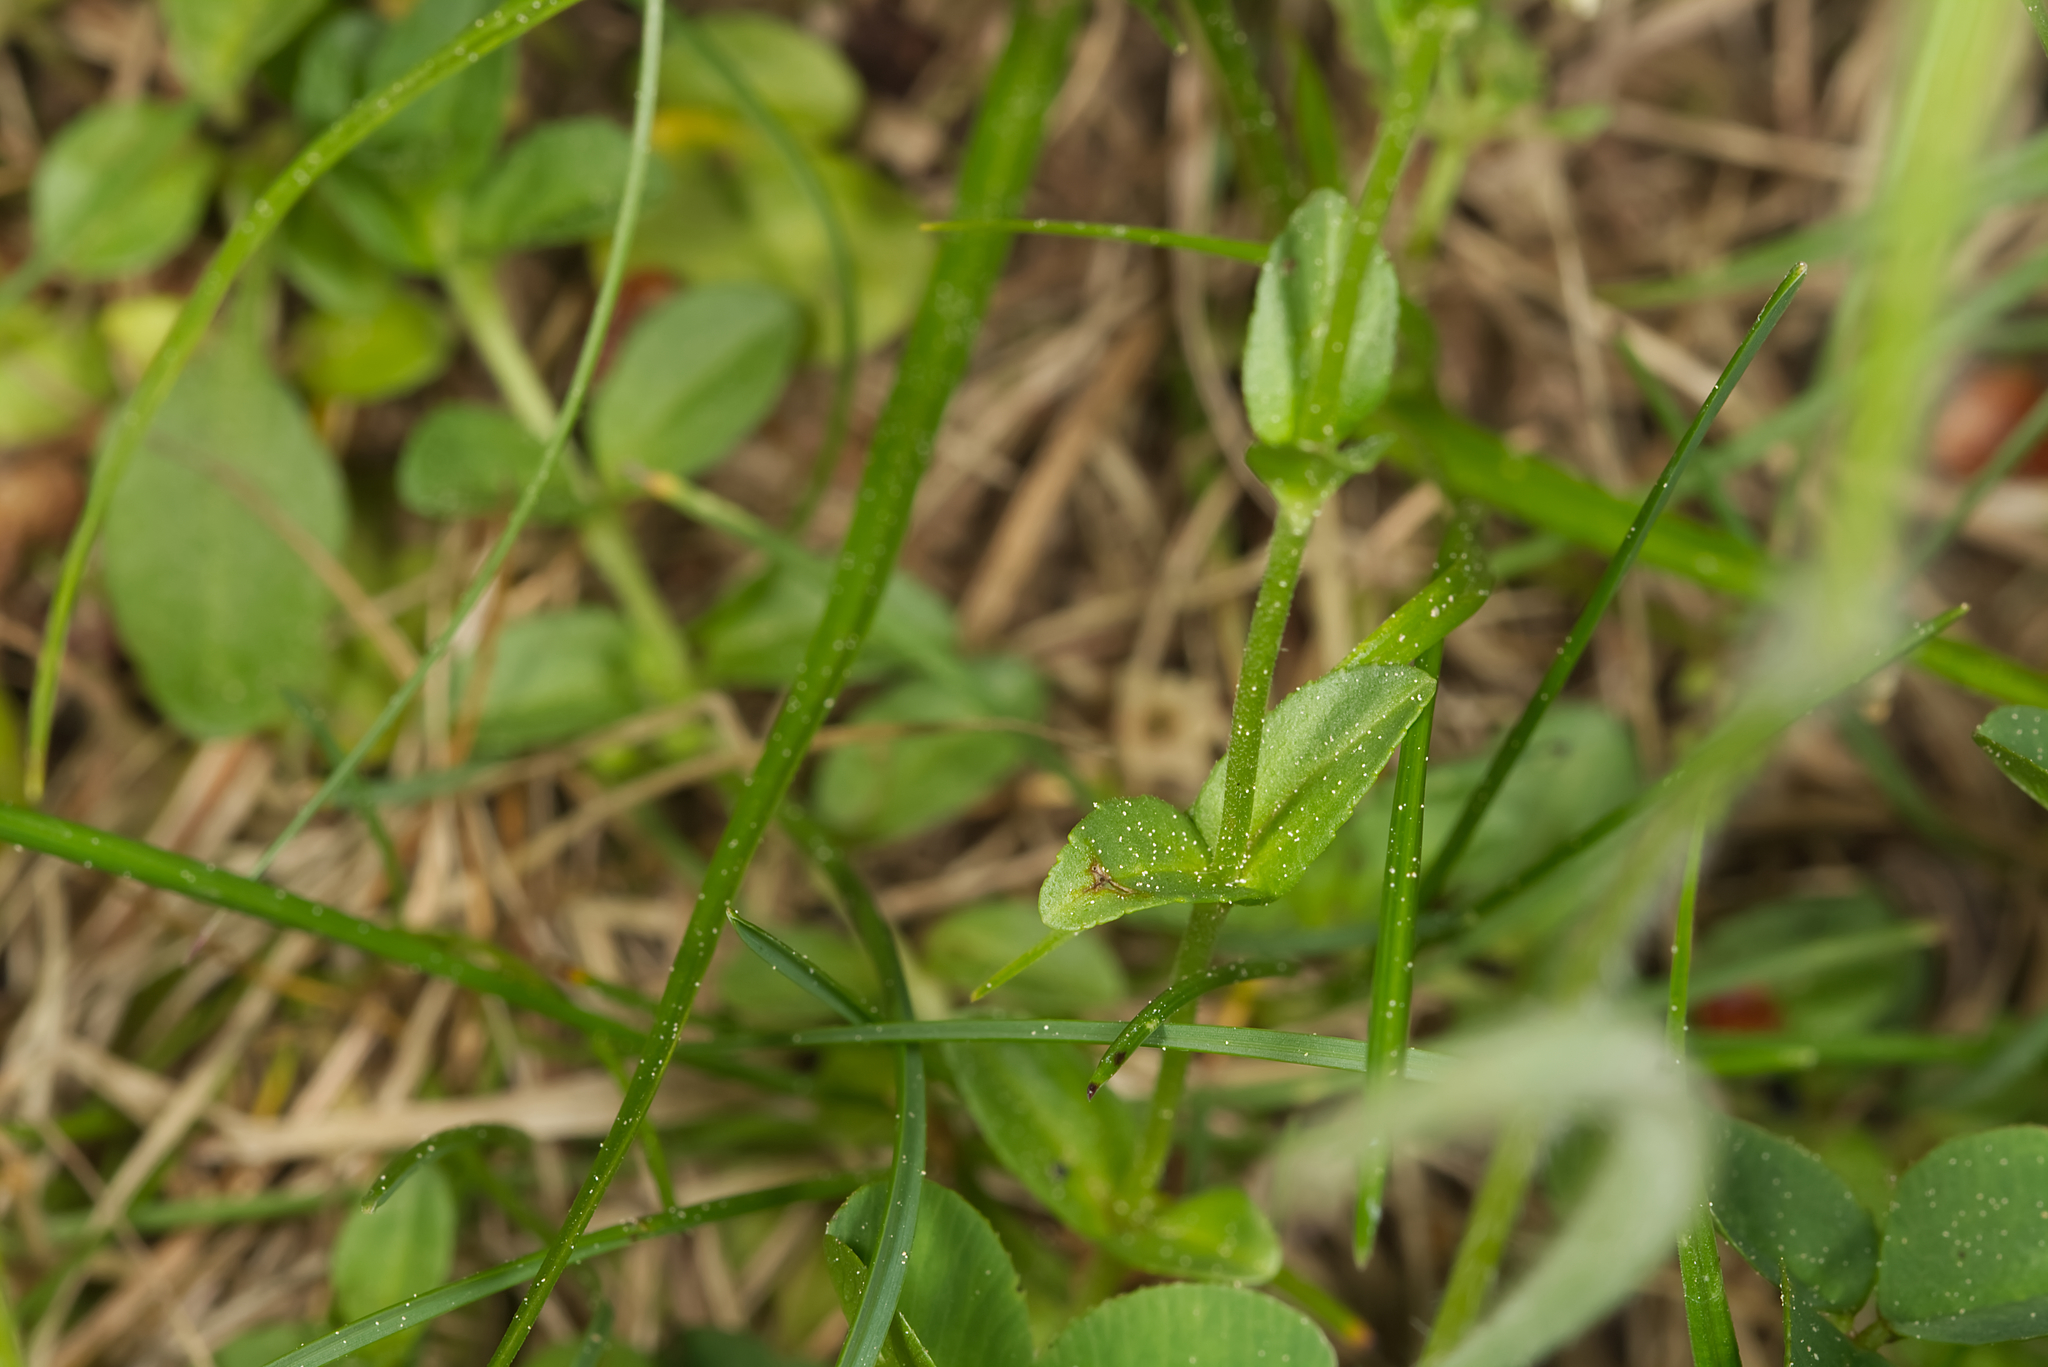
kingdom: Plantae
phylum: Tracheophyta
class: Magnoliopsida
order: Lamiales
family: Plantaginaceae
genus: Veronica
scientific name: Veronica serpyllifolia
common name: Thyme-leaved speedwell
